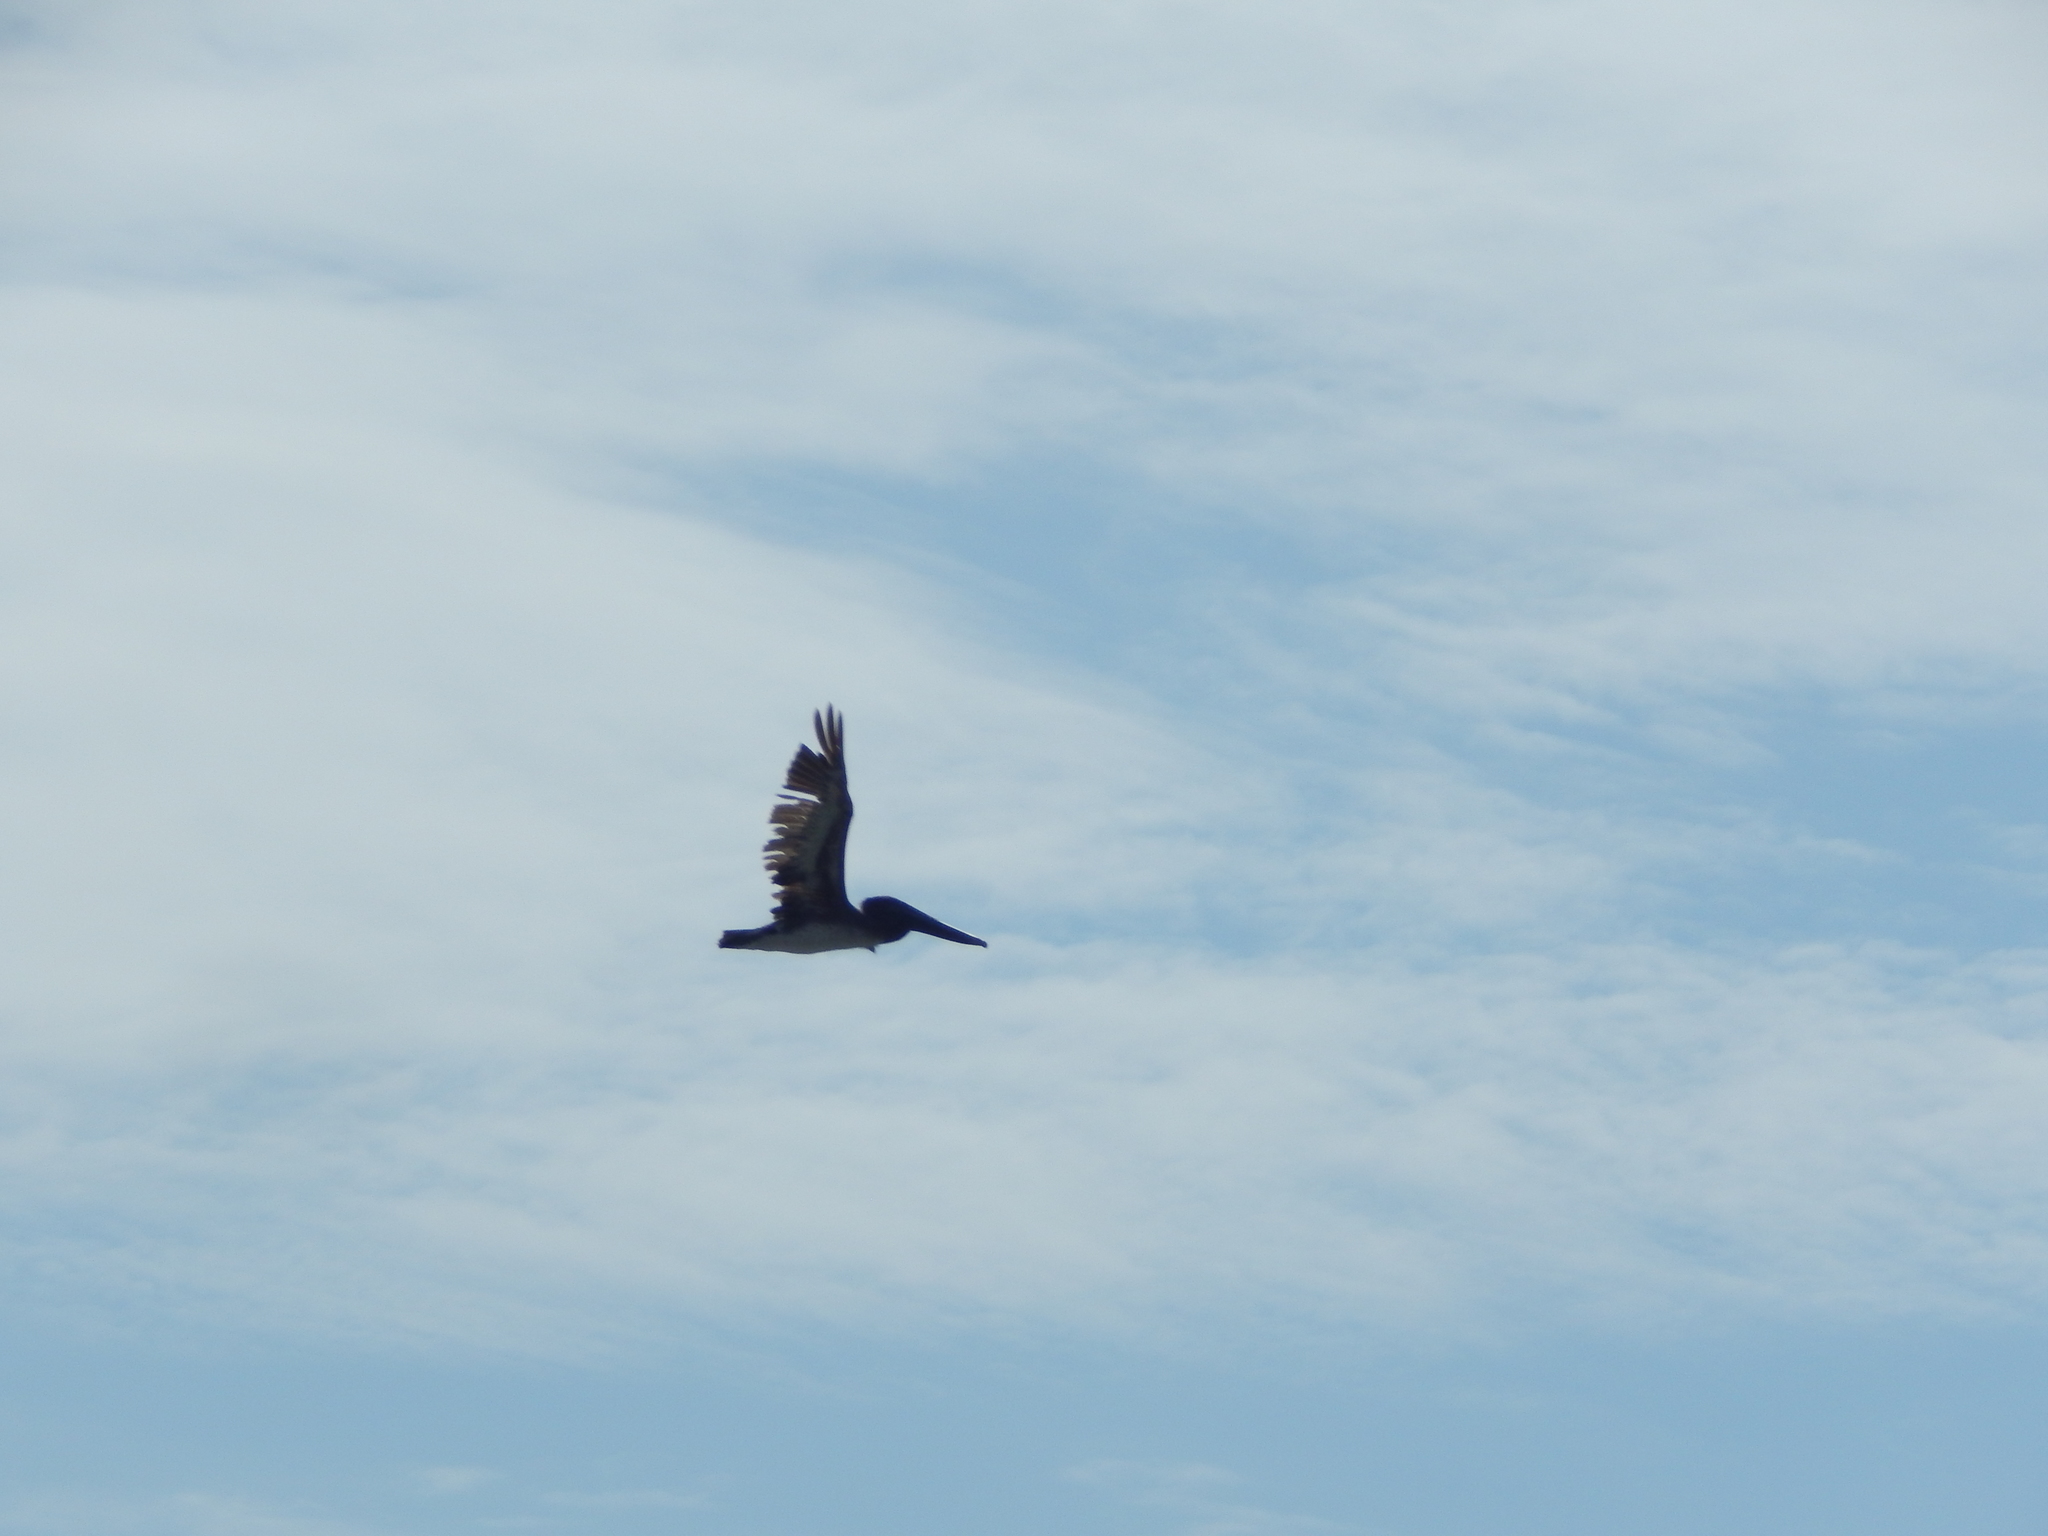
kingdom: Animalia
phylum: Chordata
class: Aves
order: Pelecaniformes
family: Pelecanidae
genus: Pelecanus
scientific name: Pelecanus occidentalis
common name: Brown pelican
